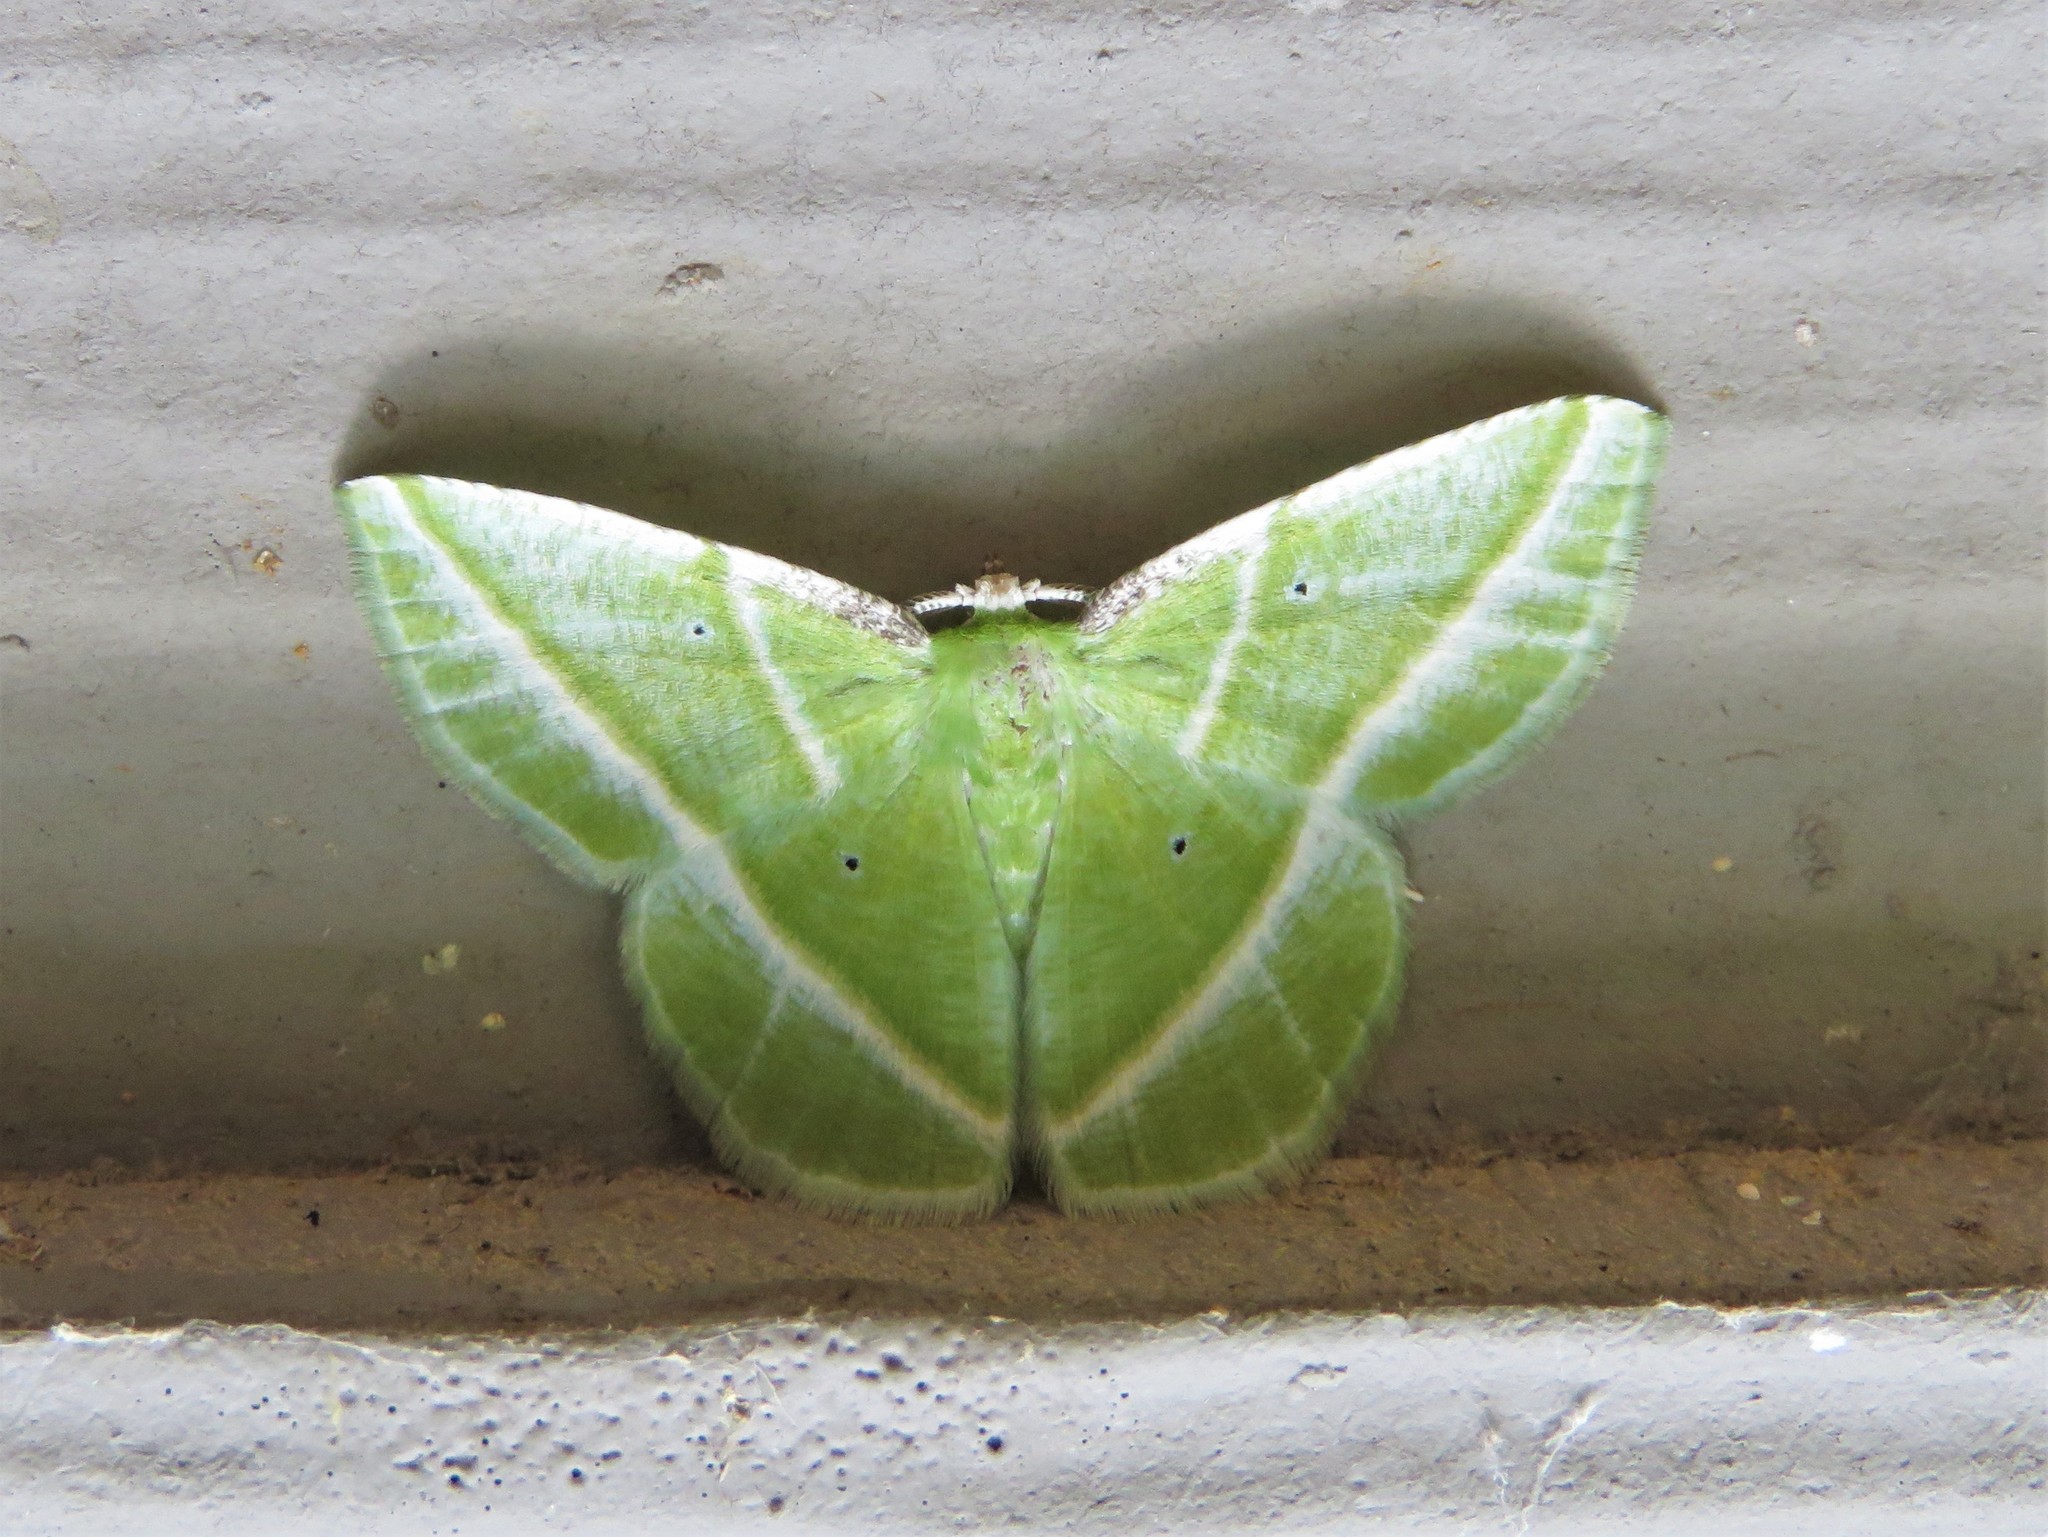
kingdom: Animalia
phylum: Arthropoda
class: Insecta
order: Lepidoptera
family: Geometridae
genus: Dichorda
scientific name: Dichorda iridaria
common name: Showy emerald
